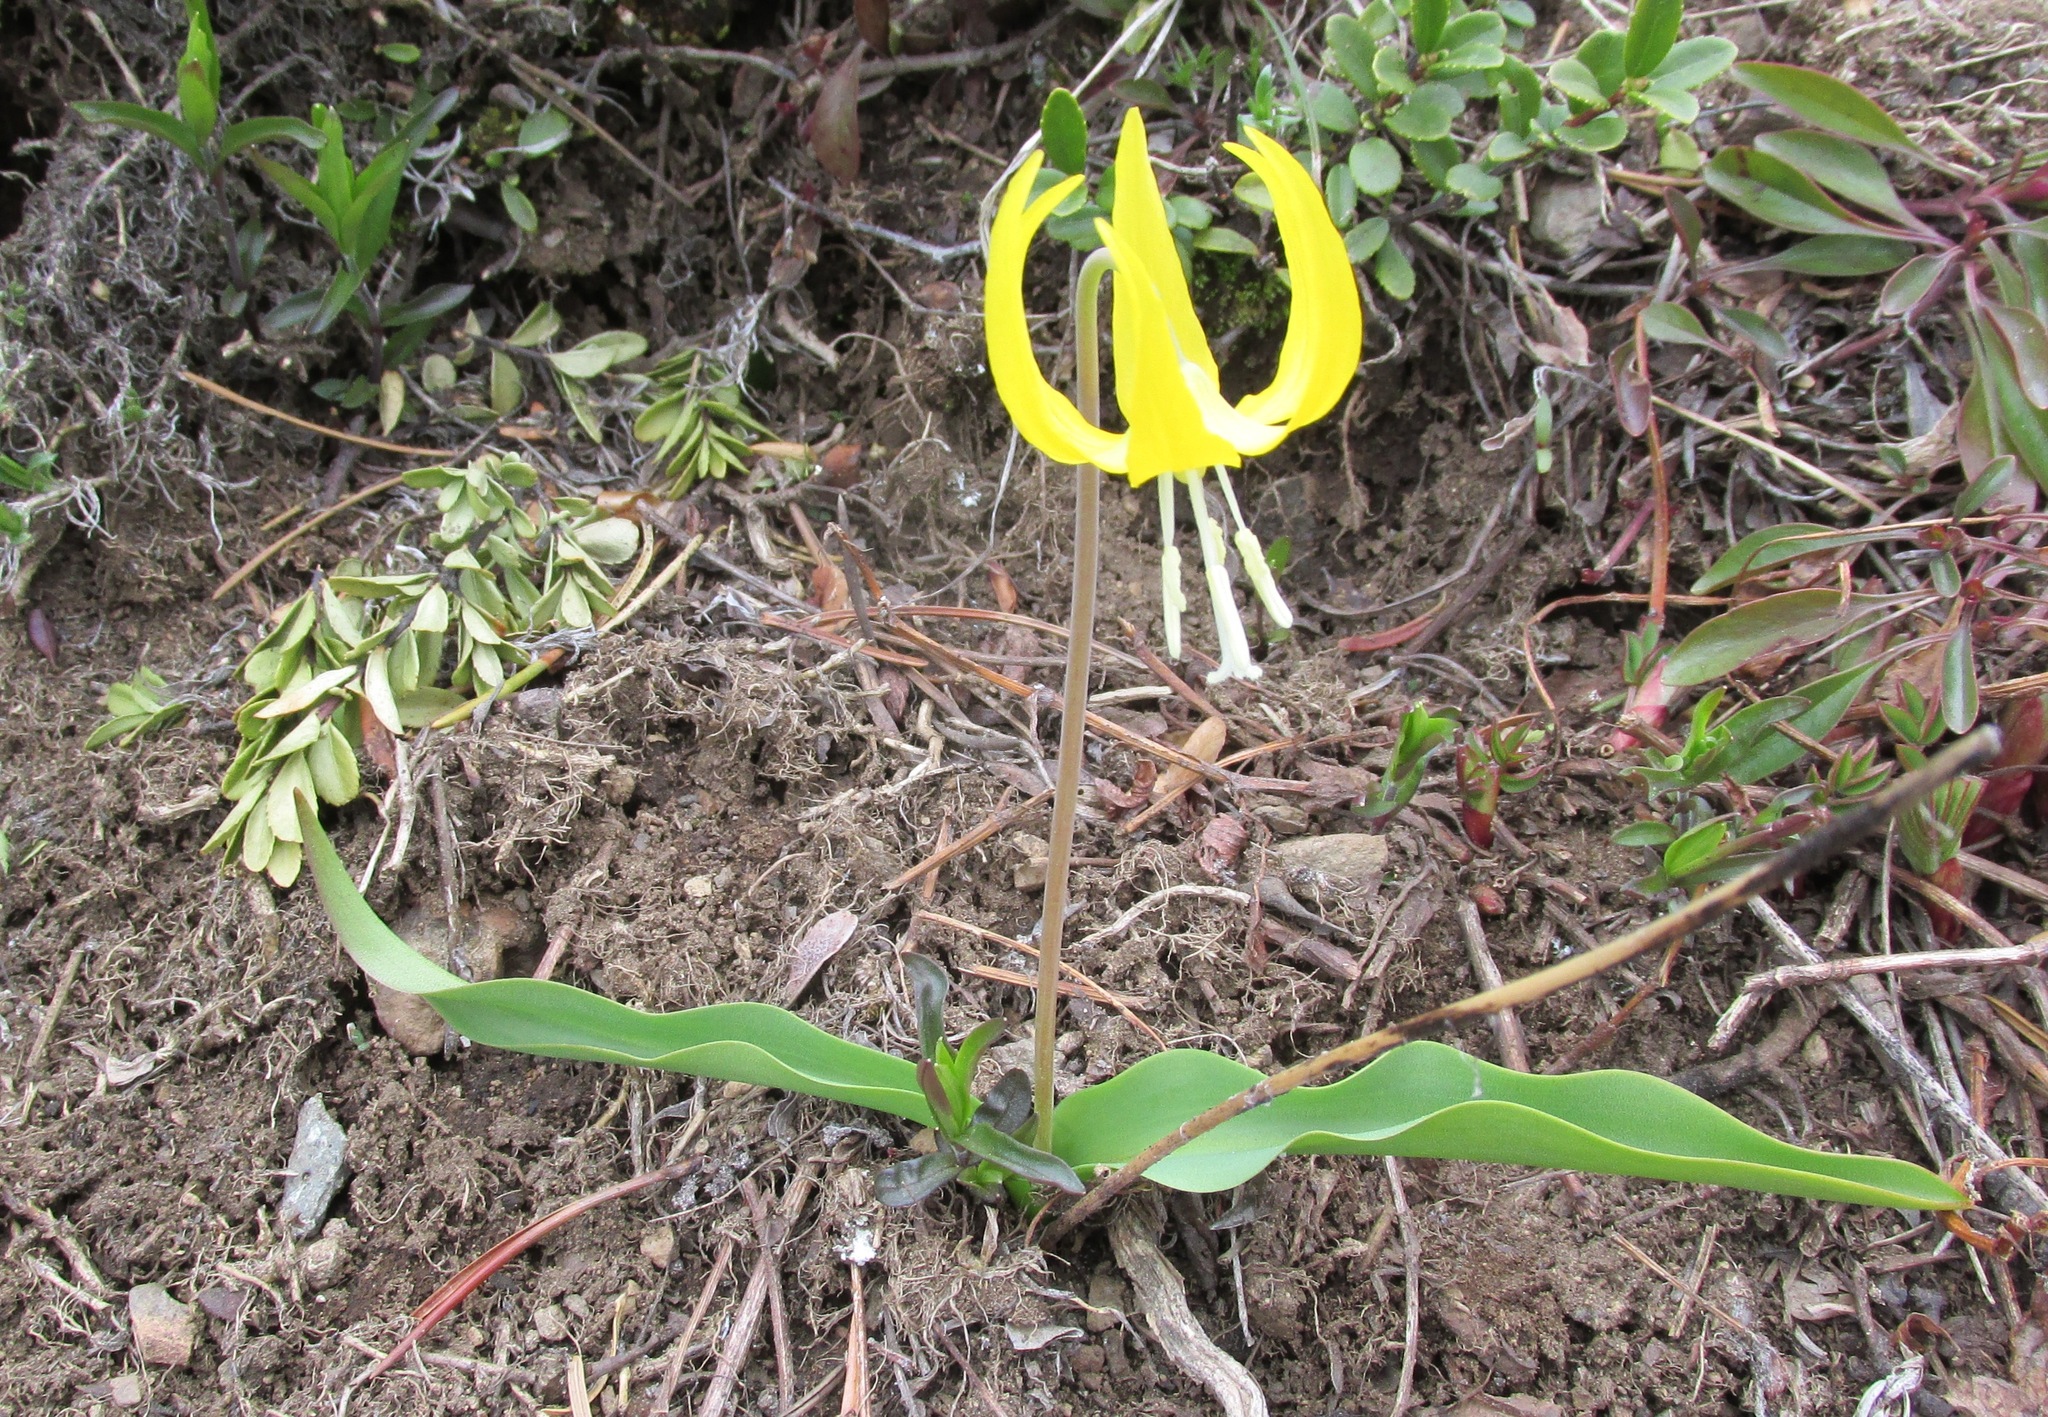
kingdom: Plantae
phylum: Tracheophyta
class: Liliopsida
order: Liliales
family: Liliaceae
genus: Erythronium
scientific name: Erythronium grandiflorum
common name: Avalanche-lily
